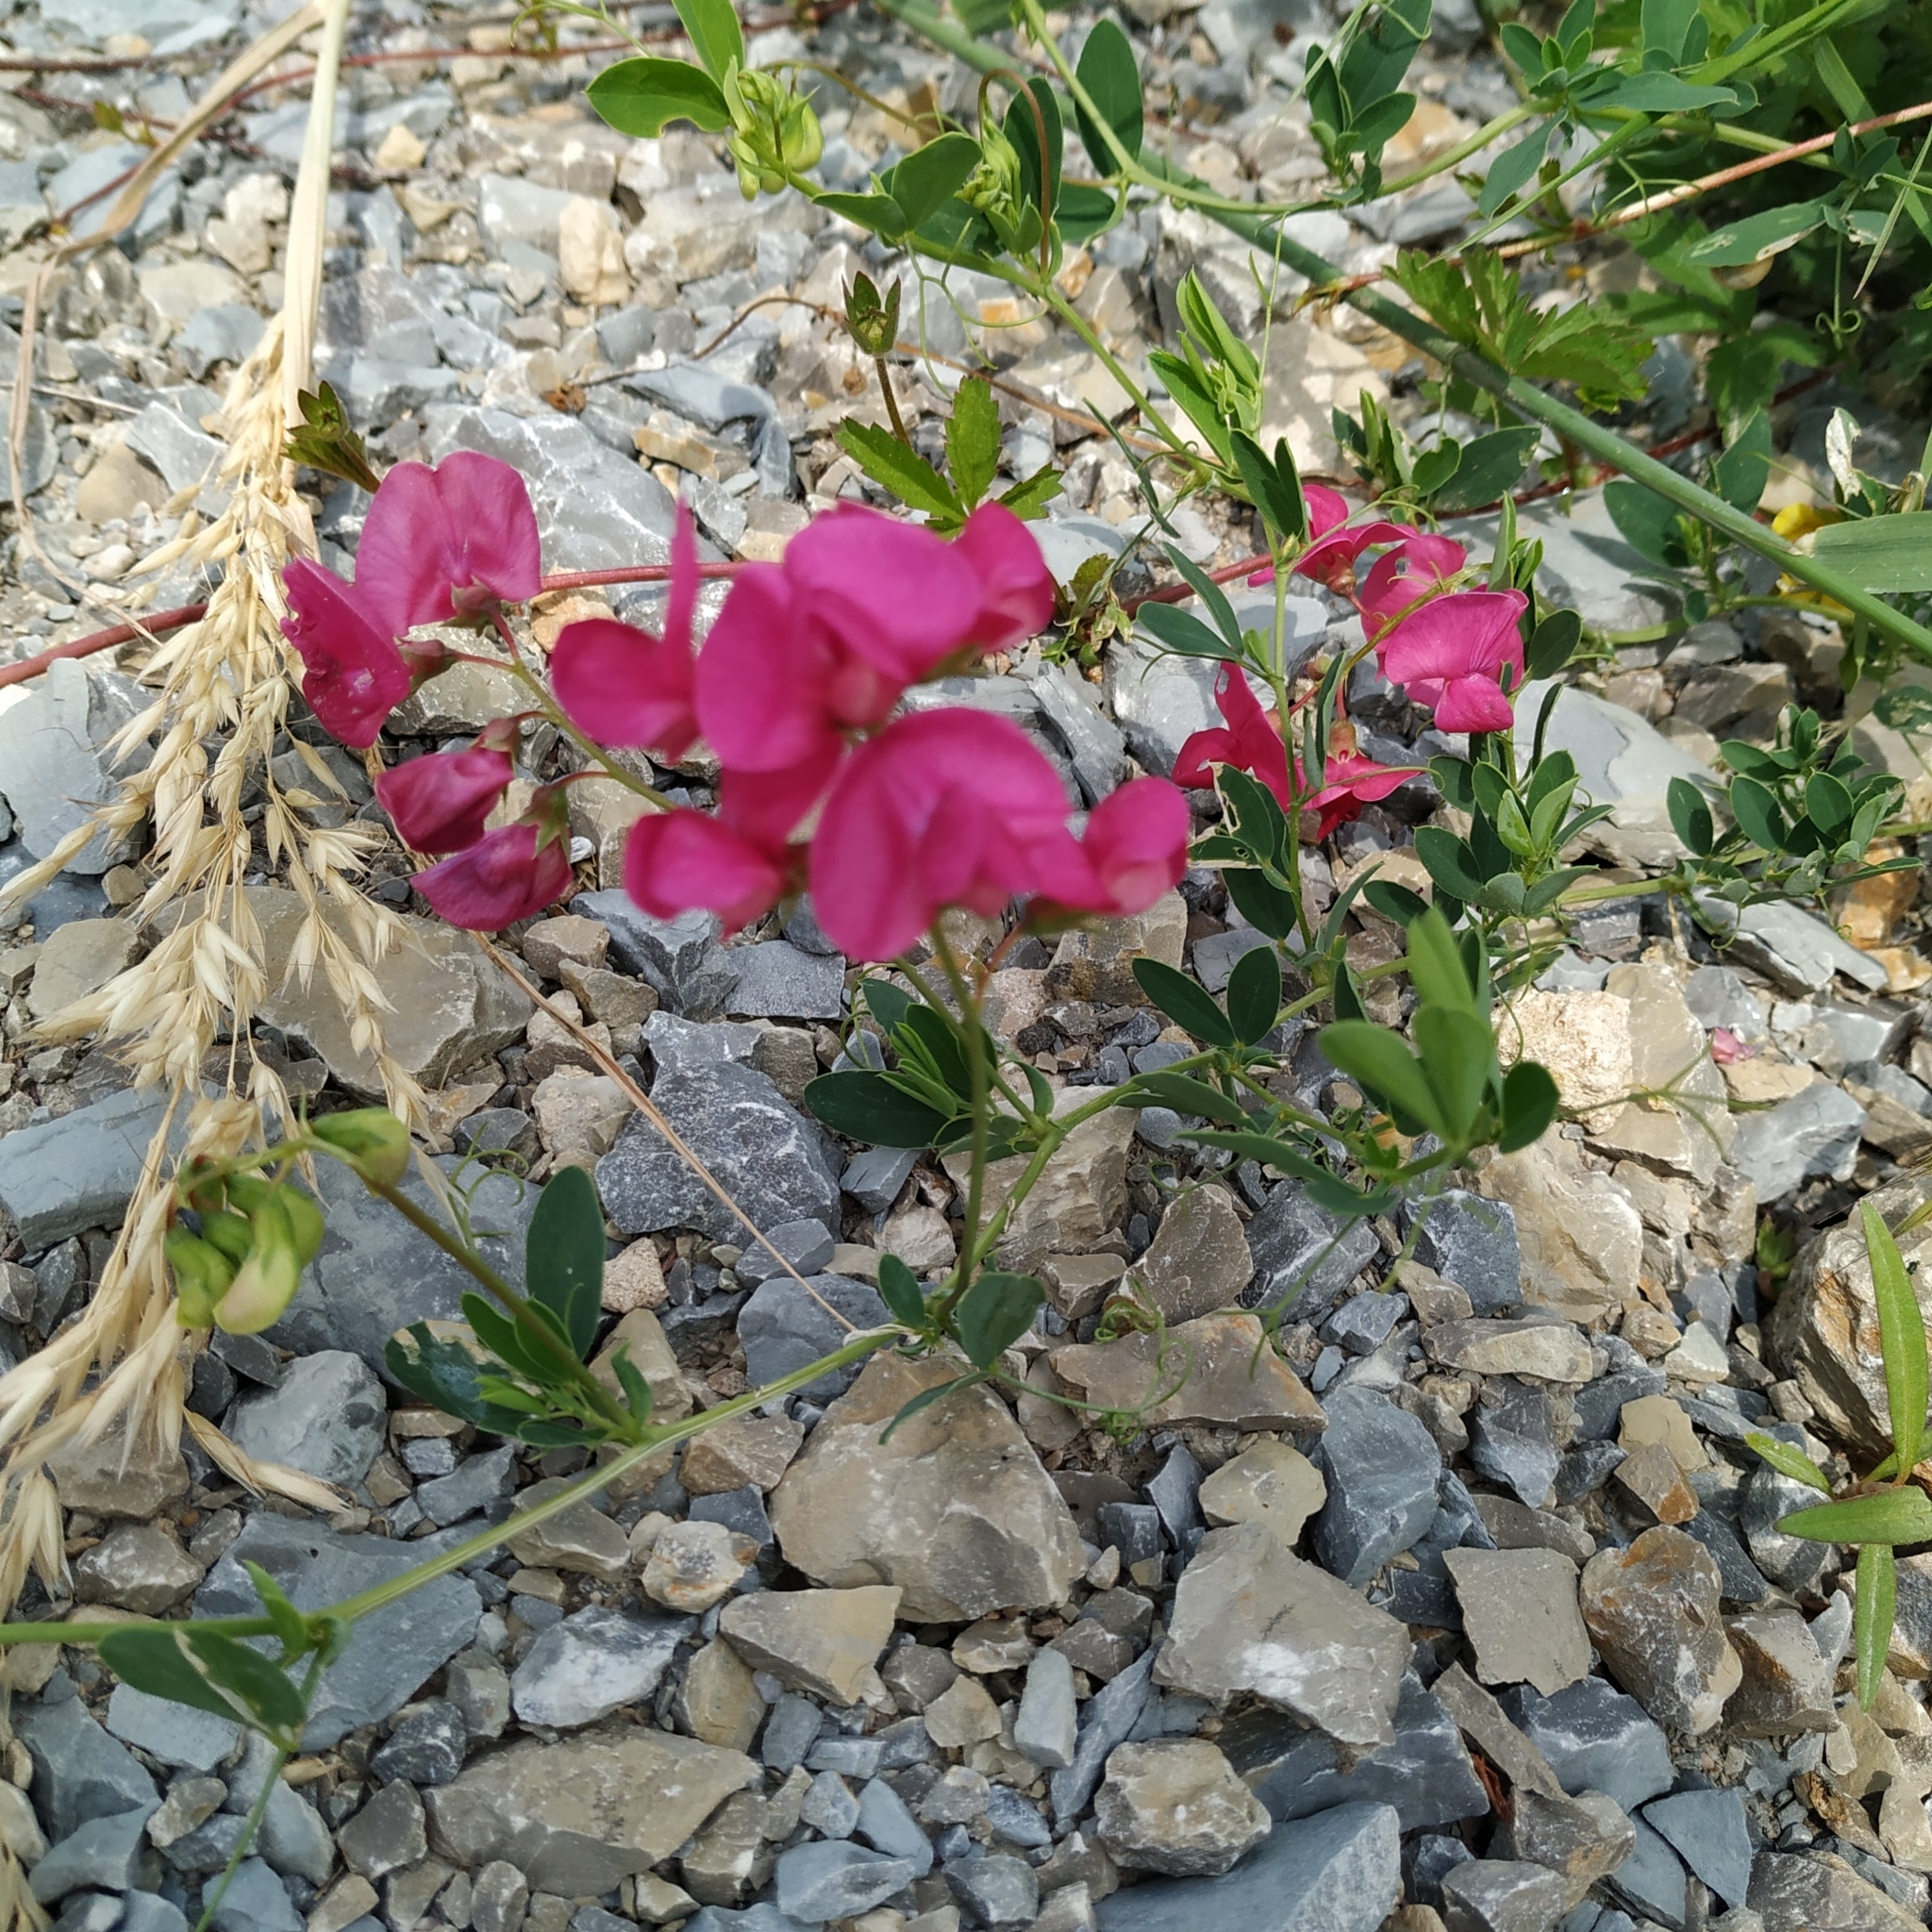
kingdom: Plantae
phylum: Tracheophyta
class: Magnoliopsida
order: Fabales
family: Fabaceae
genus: Lathyrus
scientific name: Lathyrus tuberosus
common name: Tuberous pea
